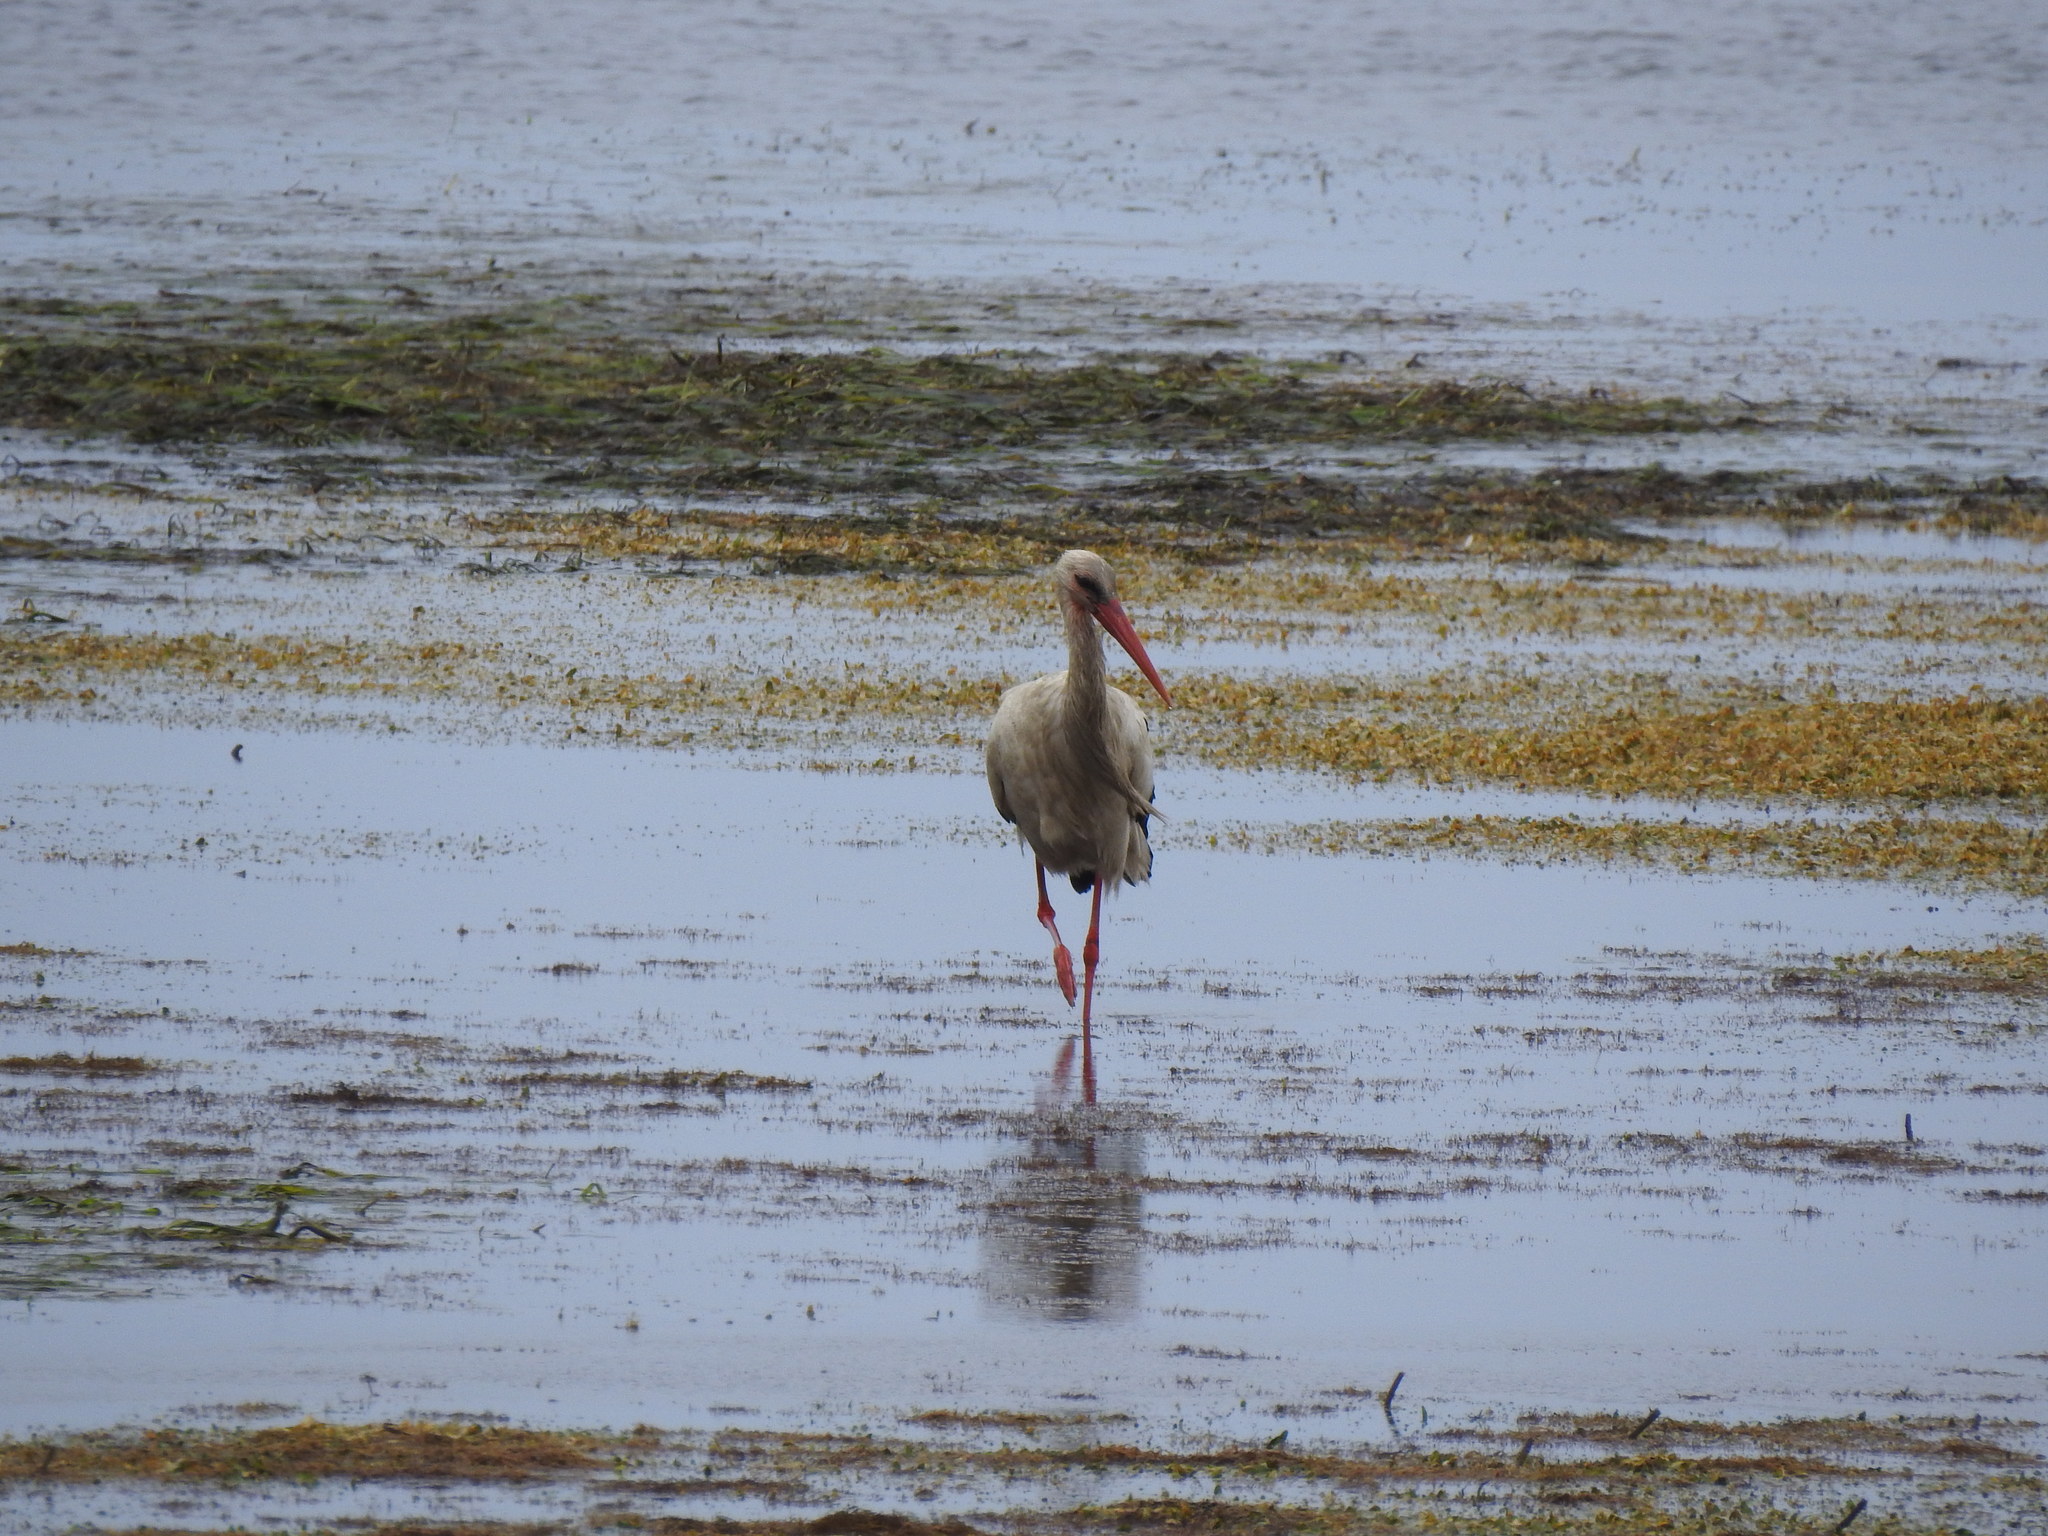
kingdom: Animalia
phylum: Chordata
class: Aves
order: Ciconiiformes
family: Ciconiidae
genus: Ciconia
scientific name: Ciconia ciconia
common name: White stork
